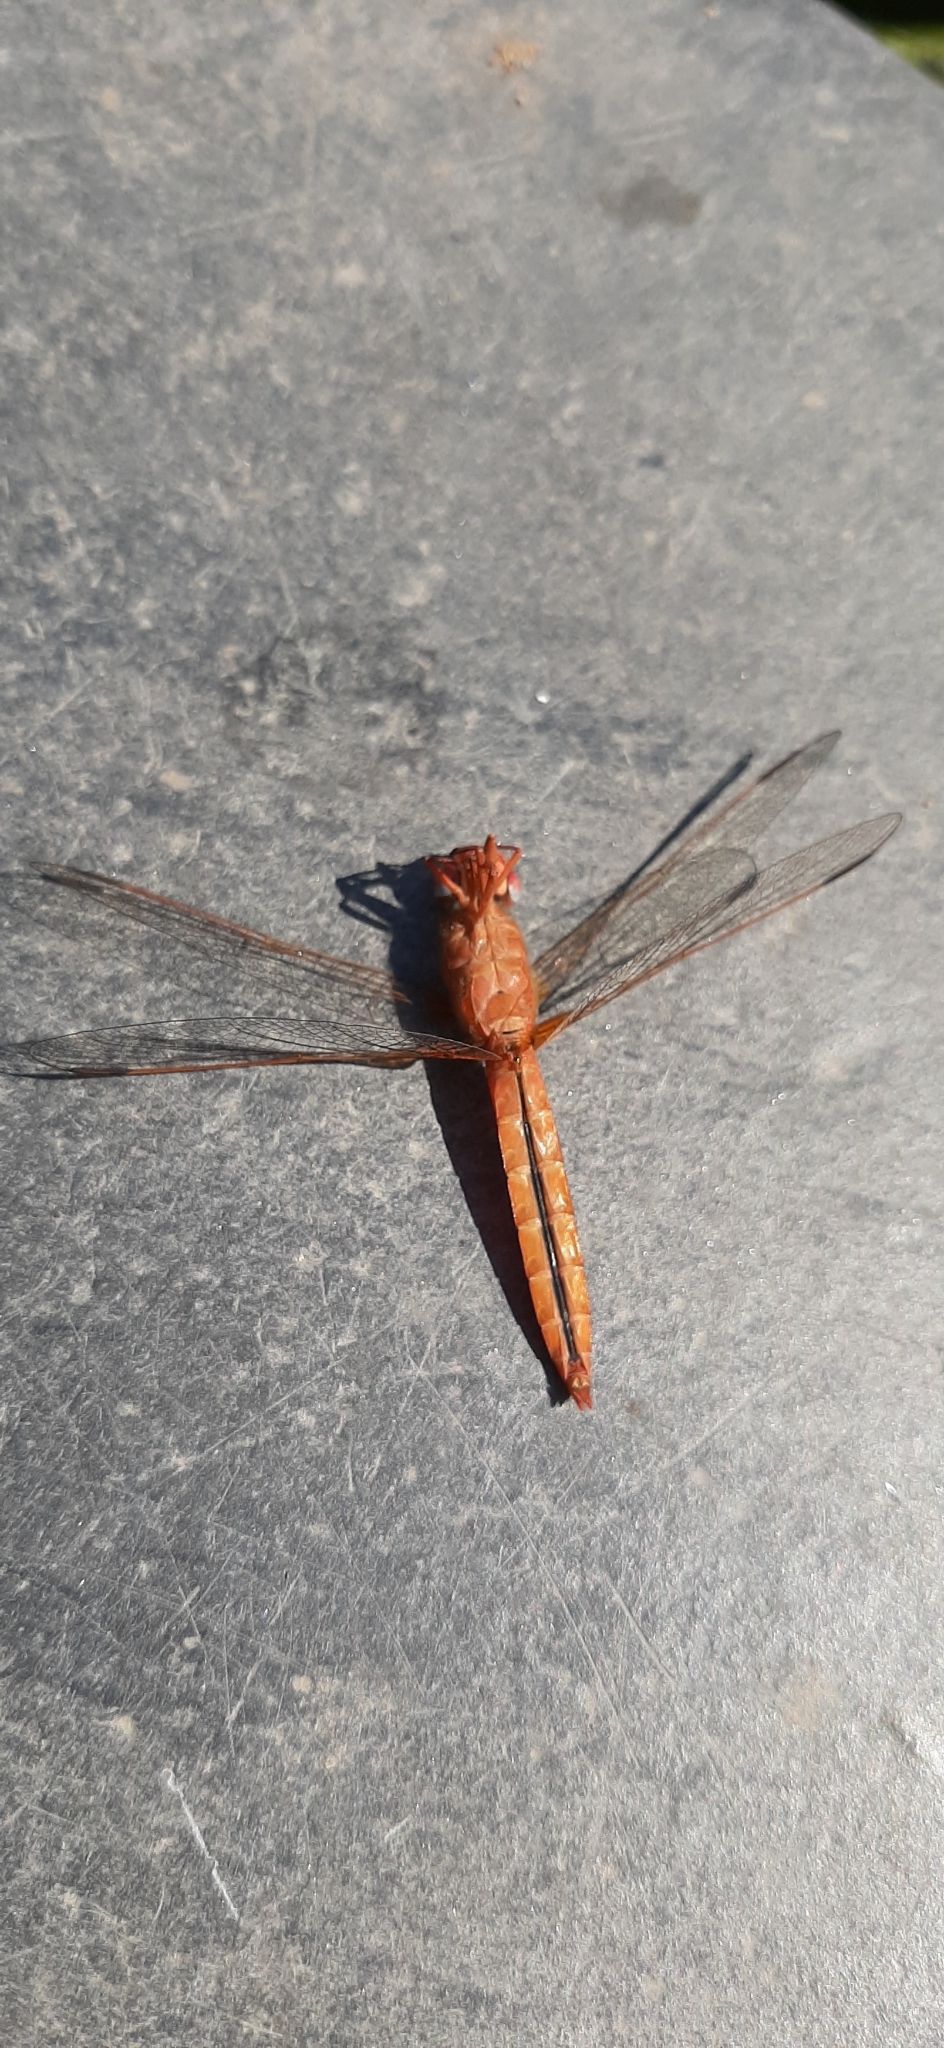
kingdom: Animalia
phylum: Arthropoda
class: Insecta
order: Odonata
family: Libellulidae
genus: Crocothemis
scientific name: Crocothemis erythraea
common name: Scarlet dragonfly
